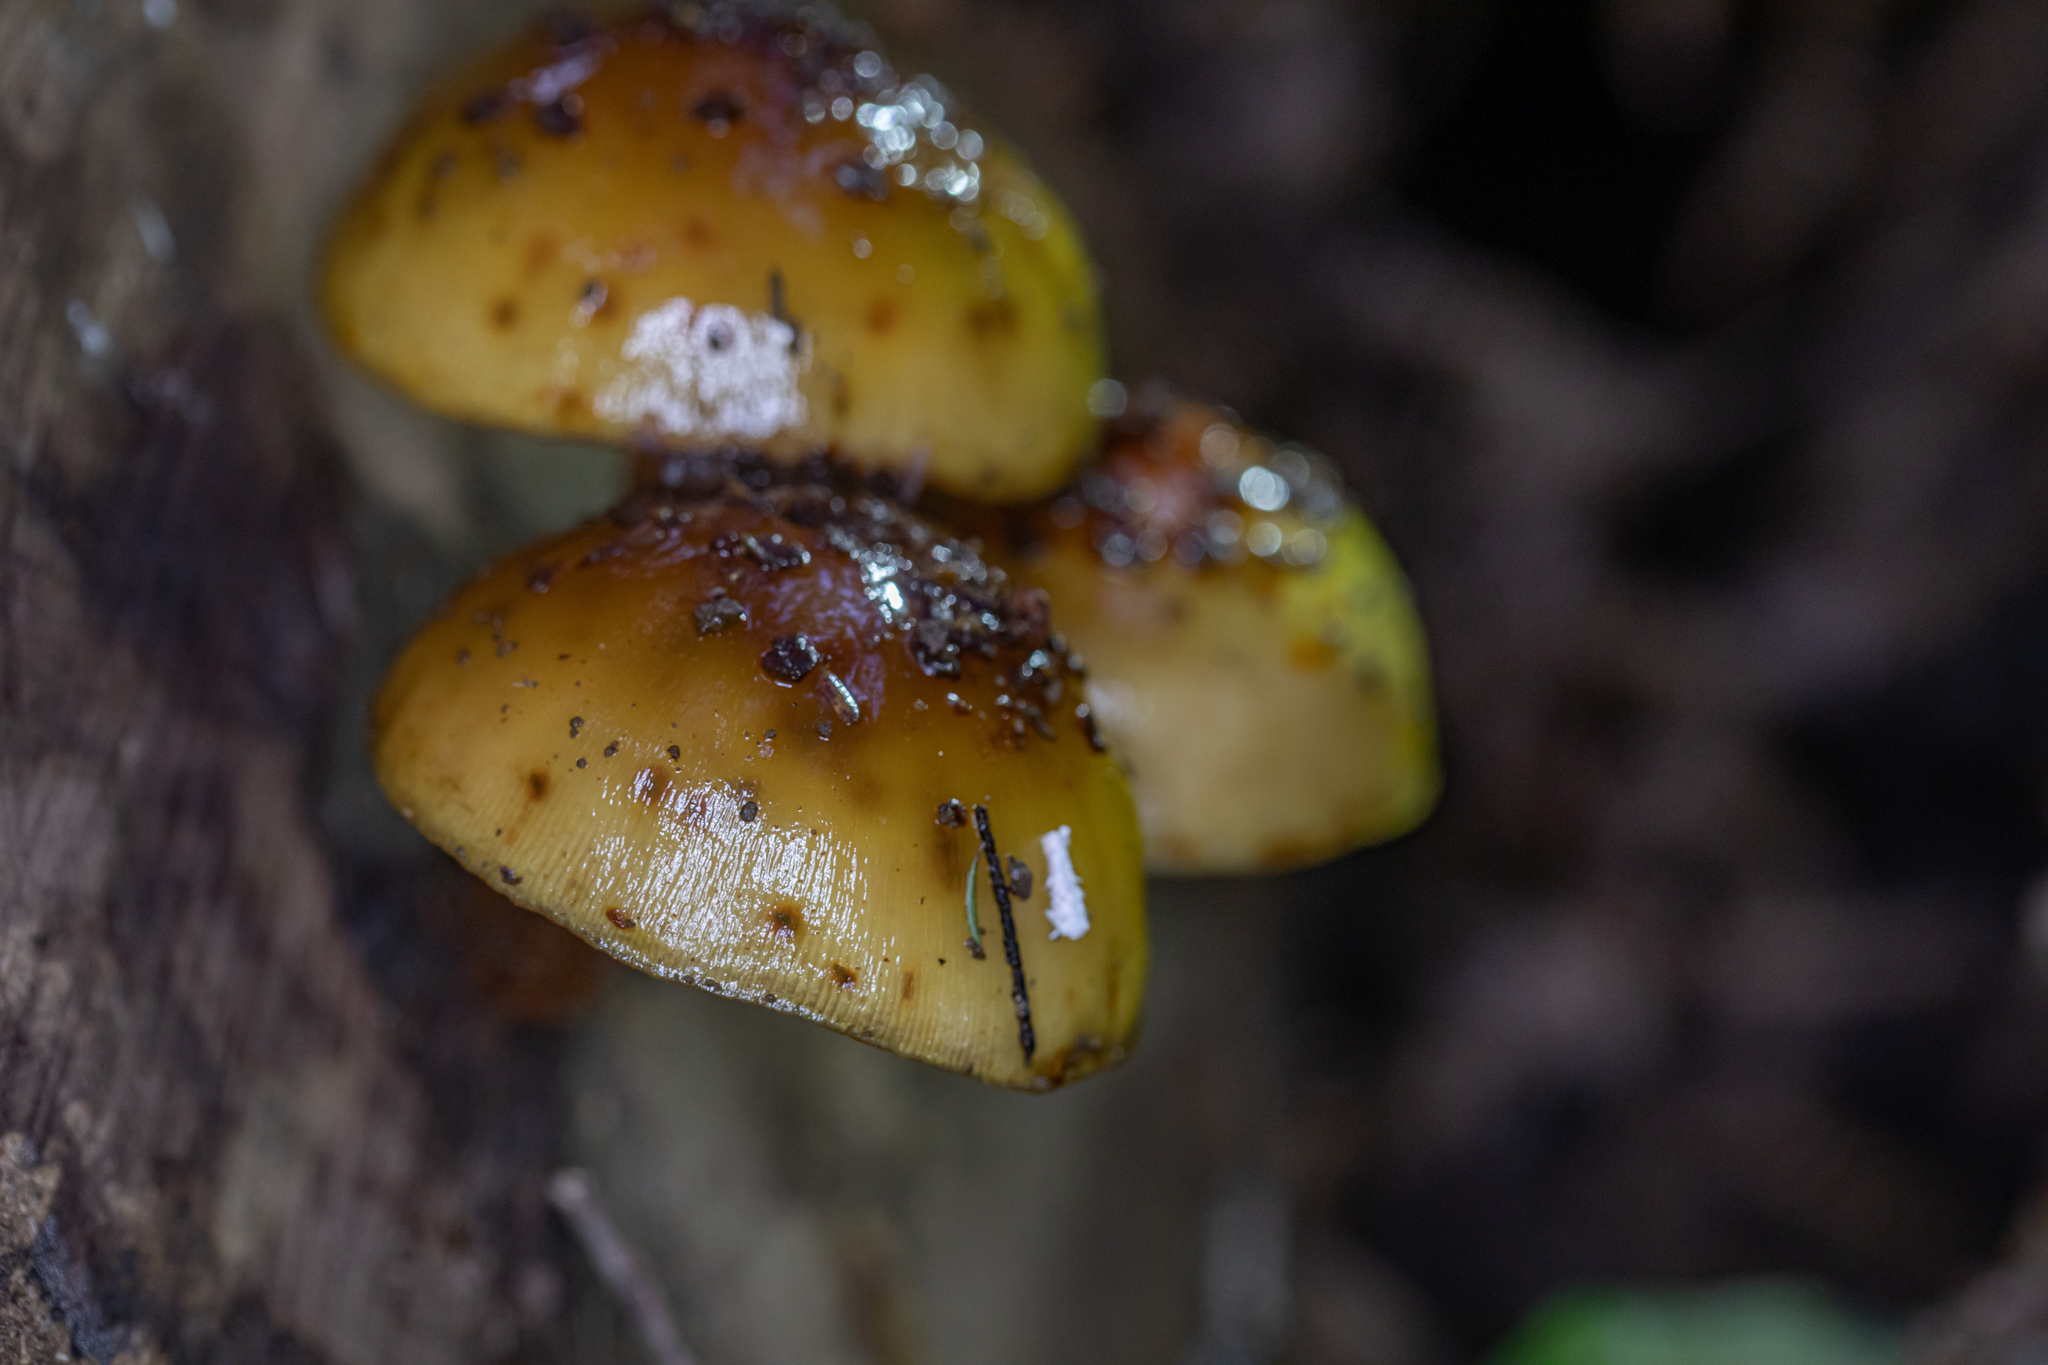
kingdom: Fungi
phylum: Basidiomycota
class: Agaricomycetes
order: Agaricales
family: Strophariaceae
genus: Pholiota
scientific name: Pholiota glutinosa
